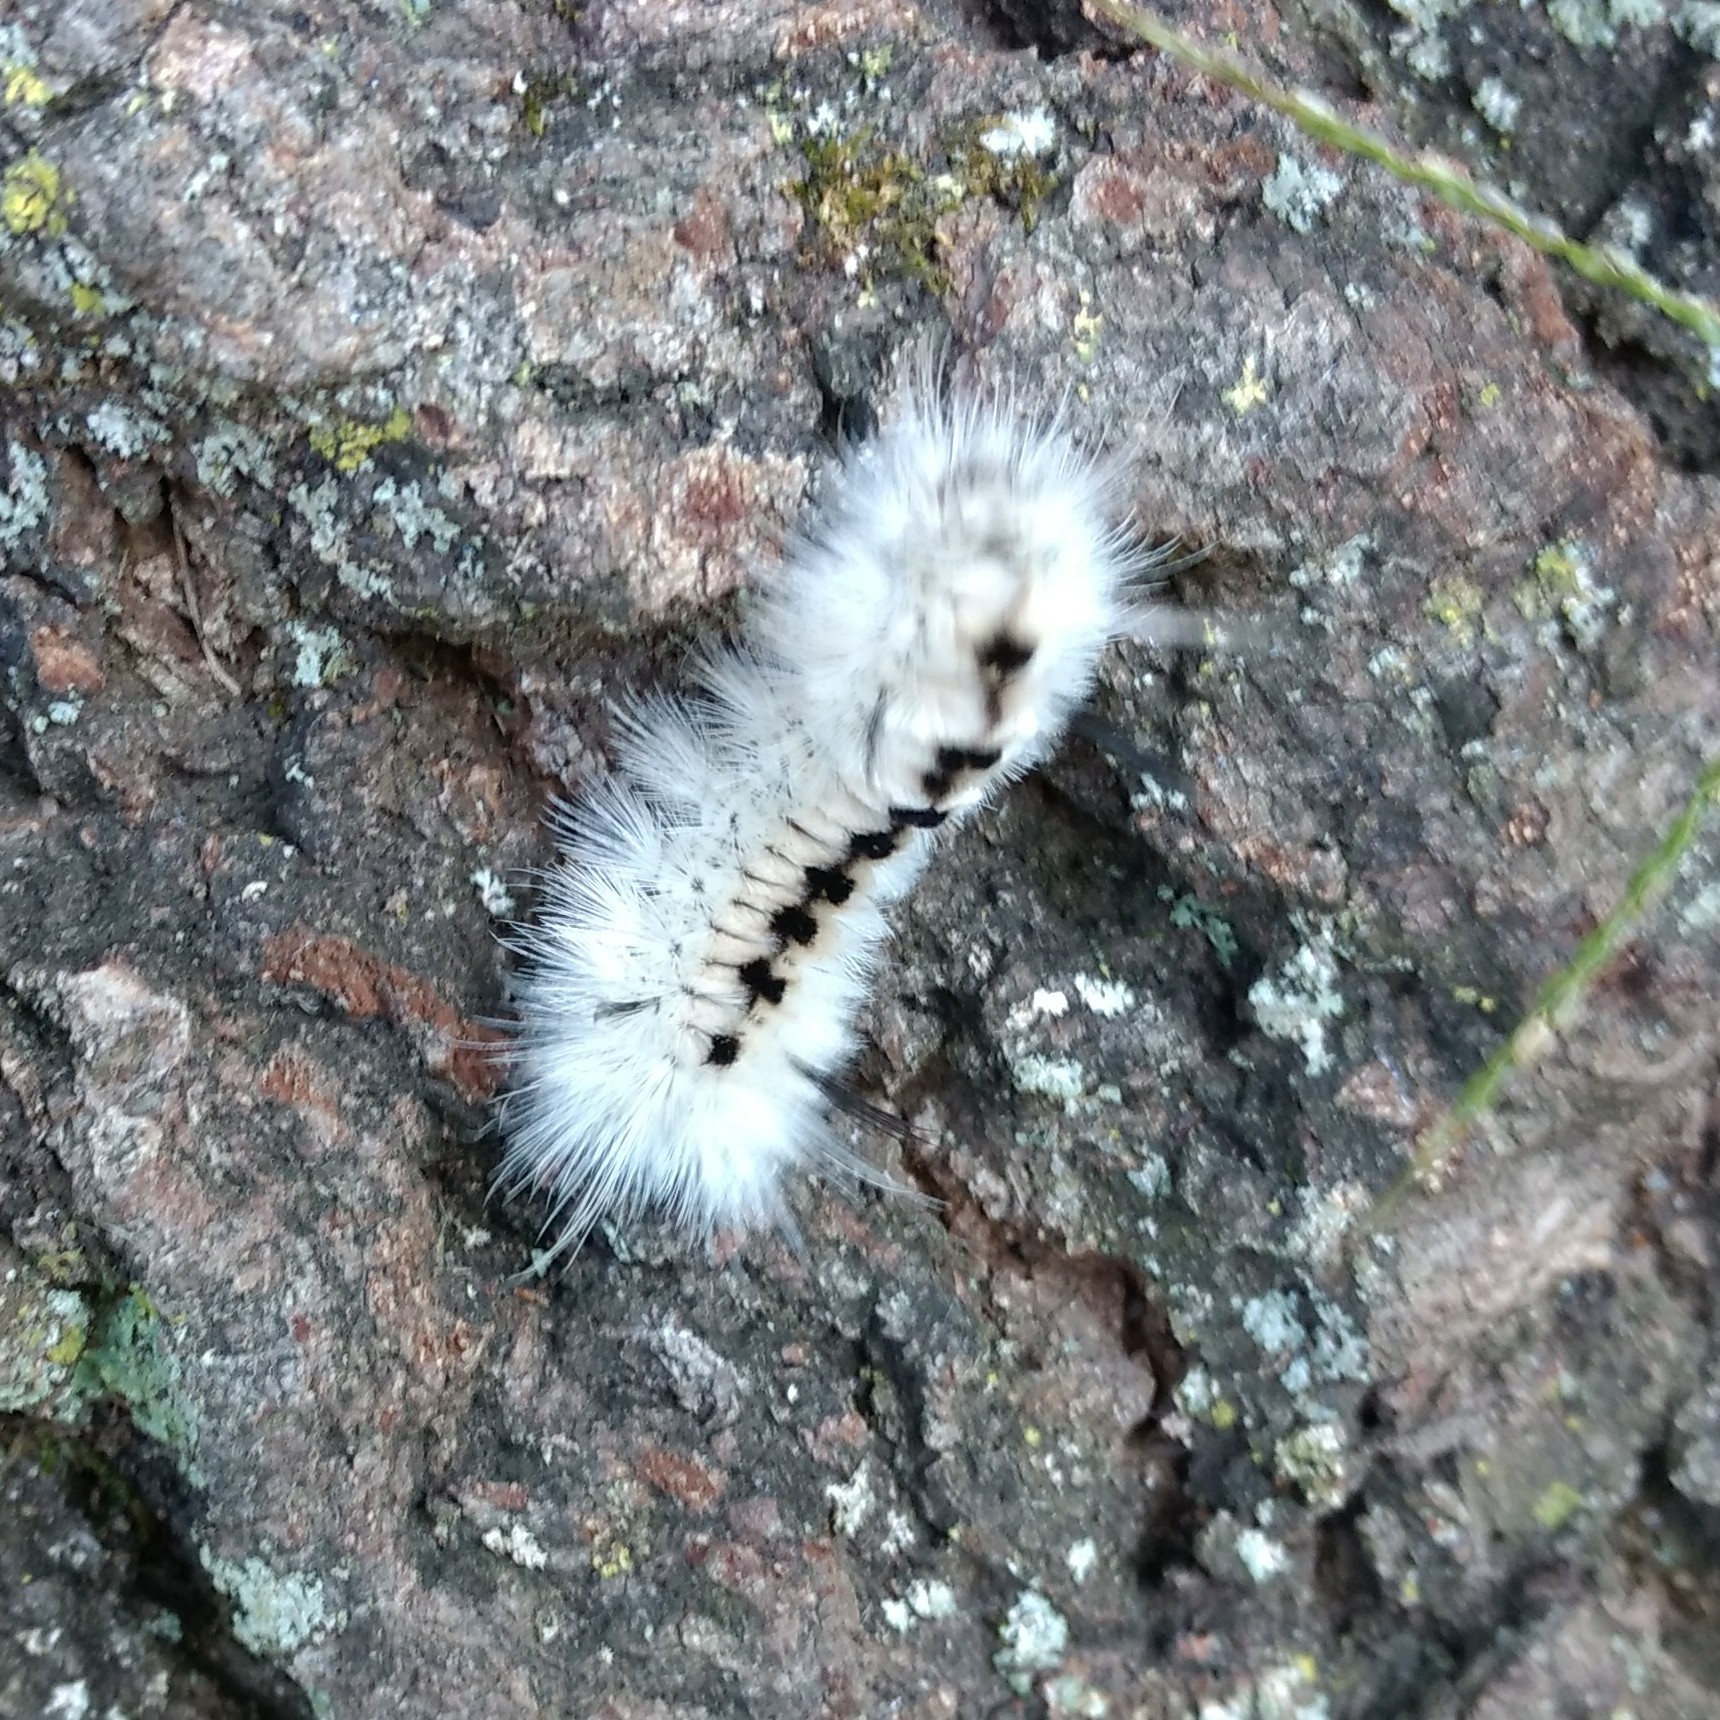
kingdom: Animalia
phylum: Arthropoda
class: Insecta
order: Lepidoptera
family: Erebidae
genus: Lophocampa
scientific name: Lophocampa caryae
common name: Hickory tussock moth
